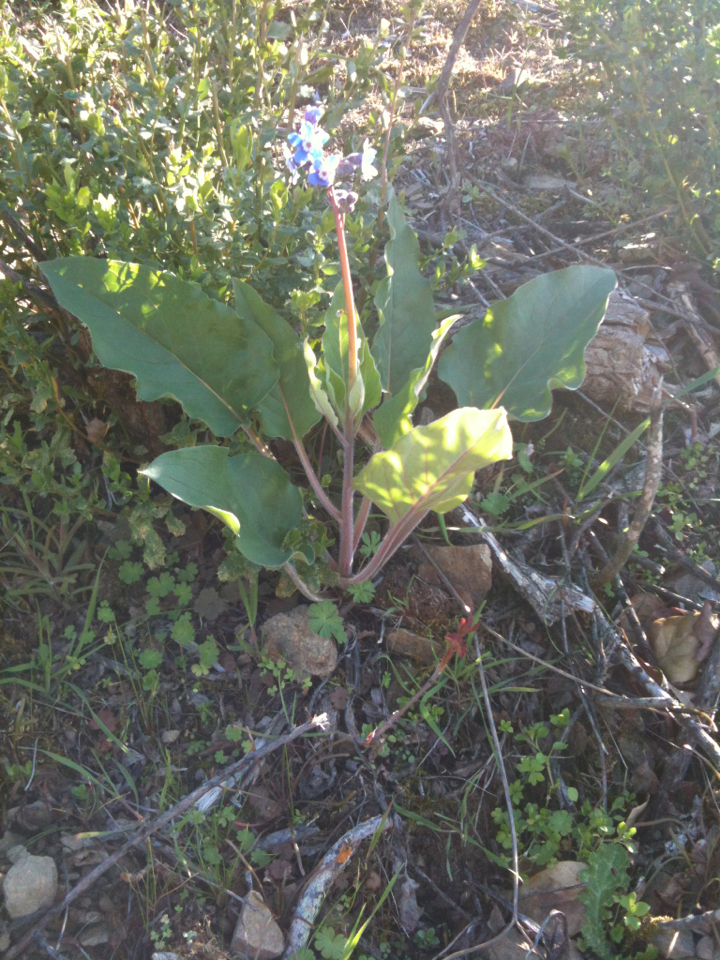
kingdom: Plantae
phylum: Tracheophyta
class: Magnoliopsida
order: Boraginales
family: Boraginaceae
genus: Adelinia
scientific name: Adelinia grande
